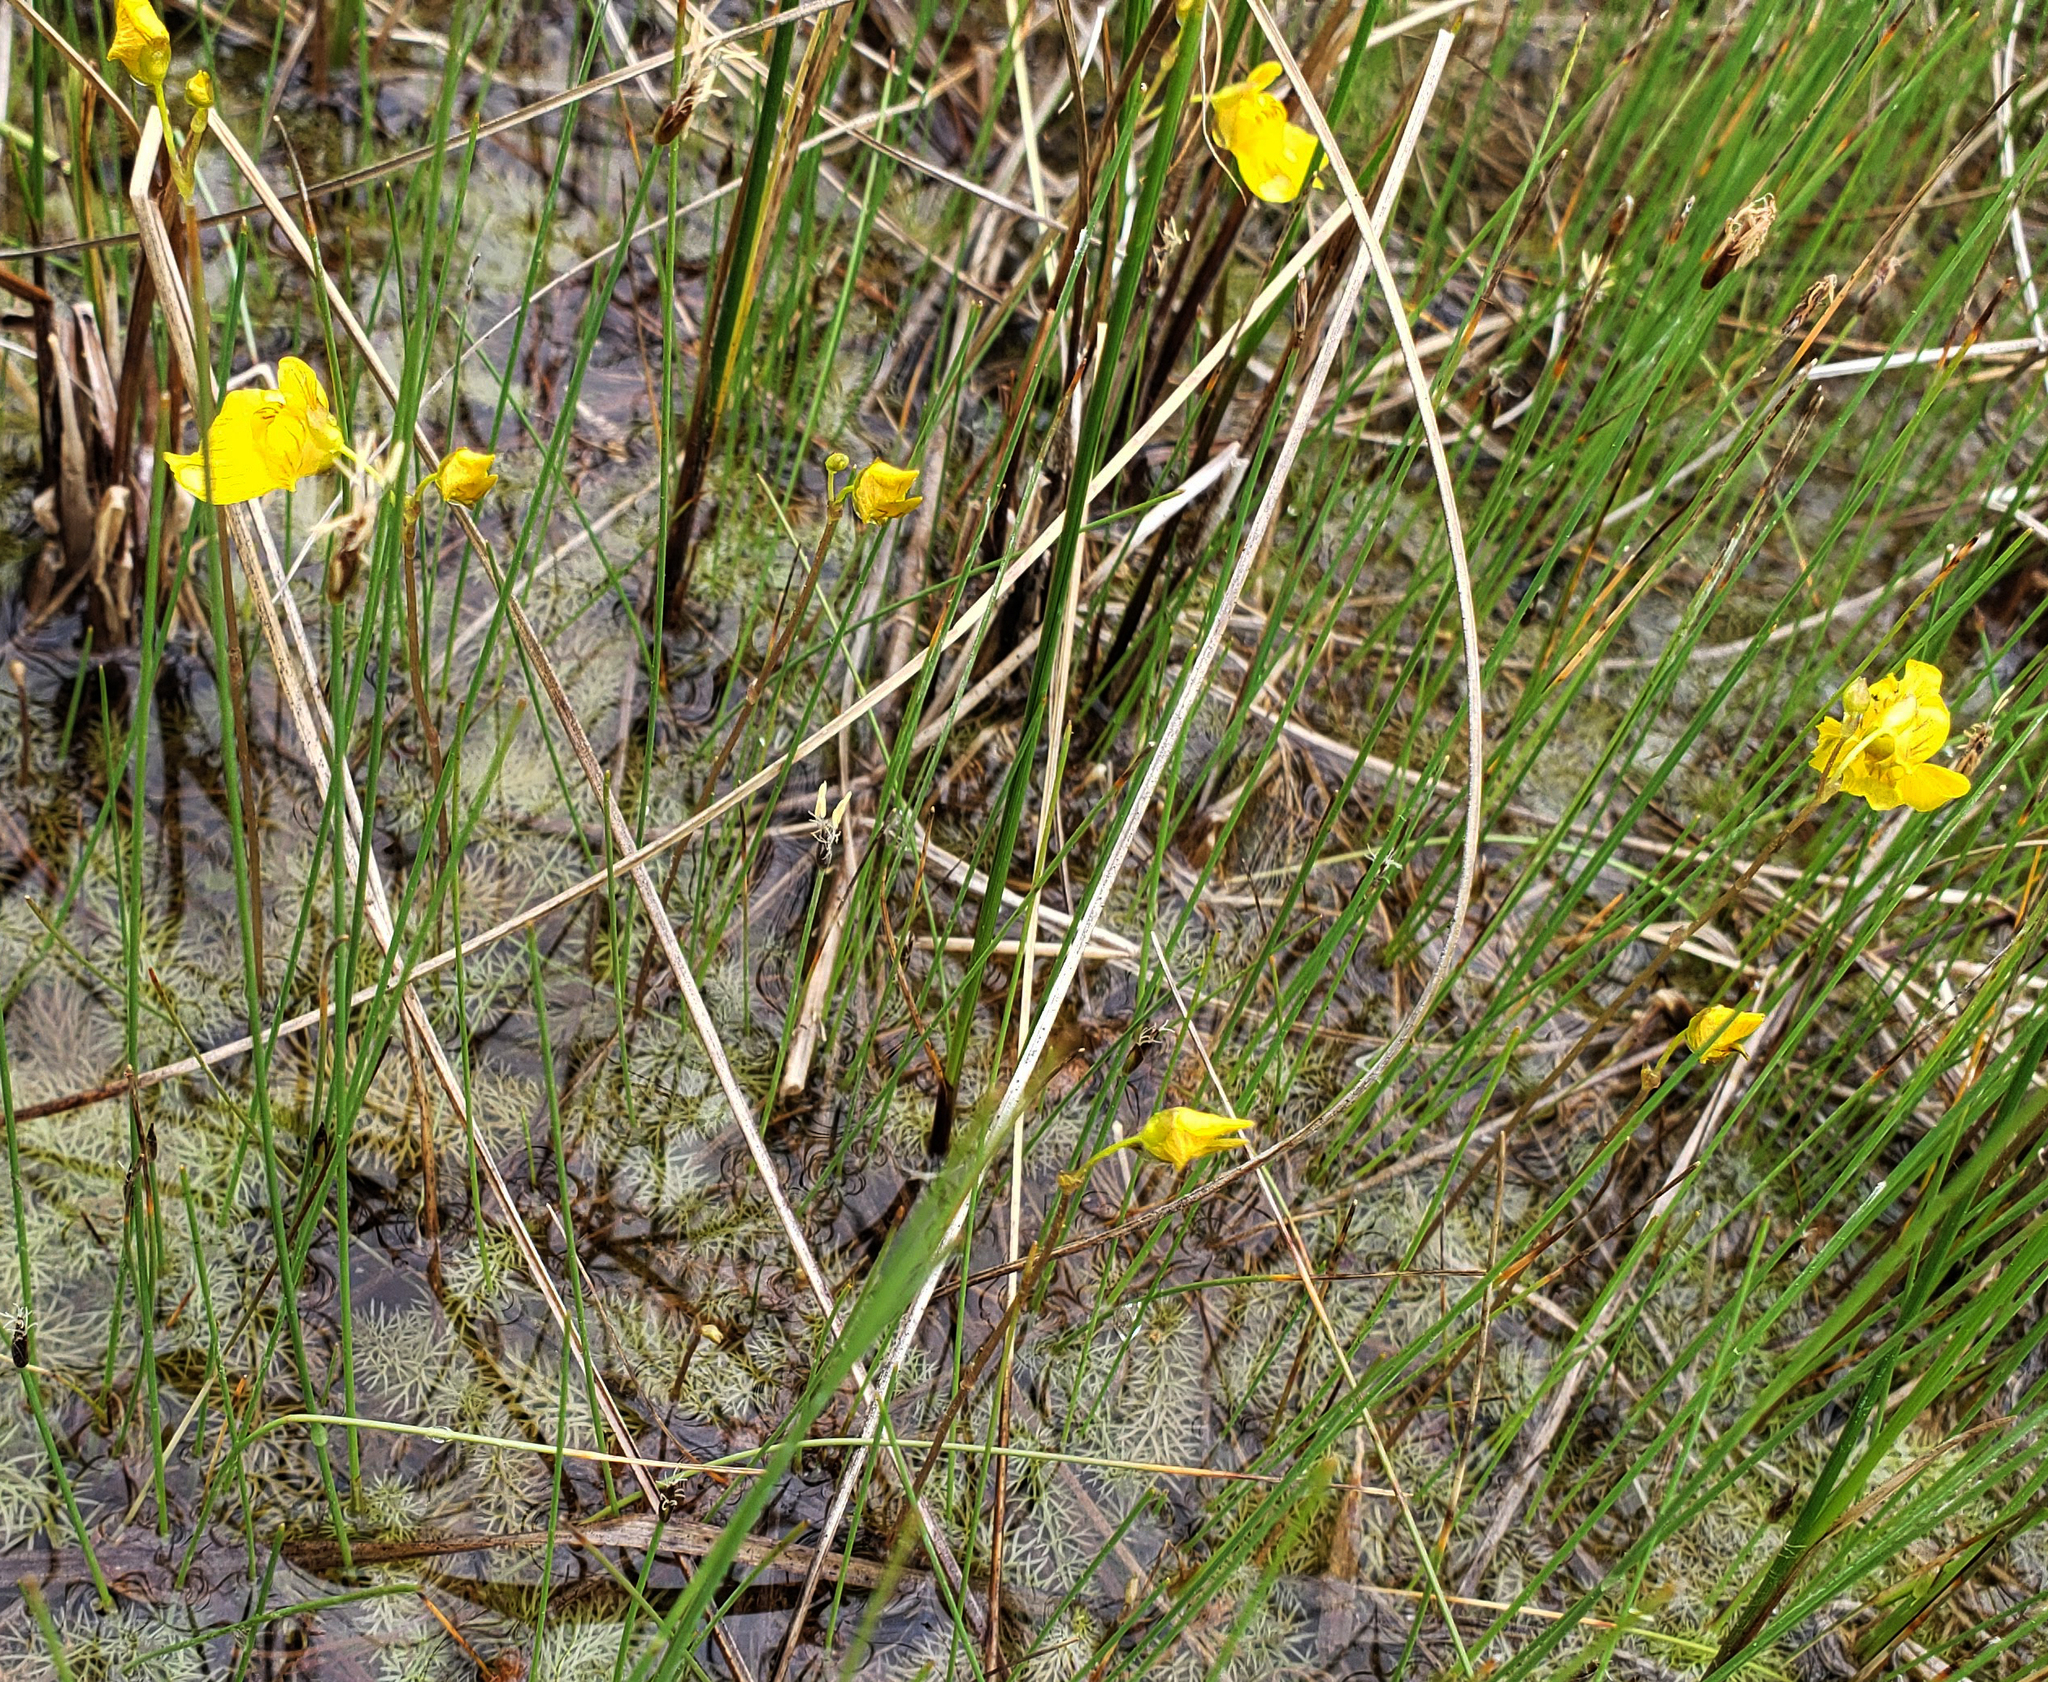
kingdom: Plantae
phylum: Tracheophyta
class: Magnoliopsida
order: Lamiales
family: Lentibulariaceae
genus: Utricularia
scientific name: Utricularia intermedia
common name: Intermediate bladderwort
